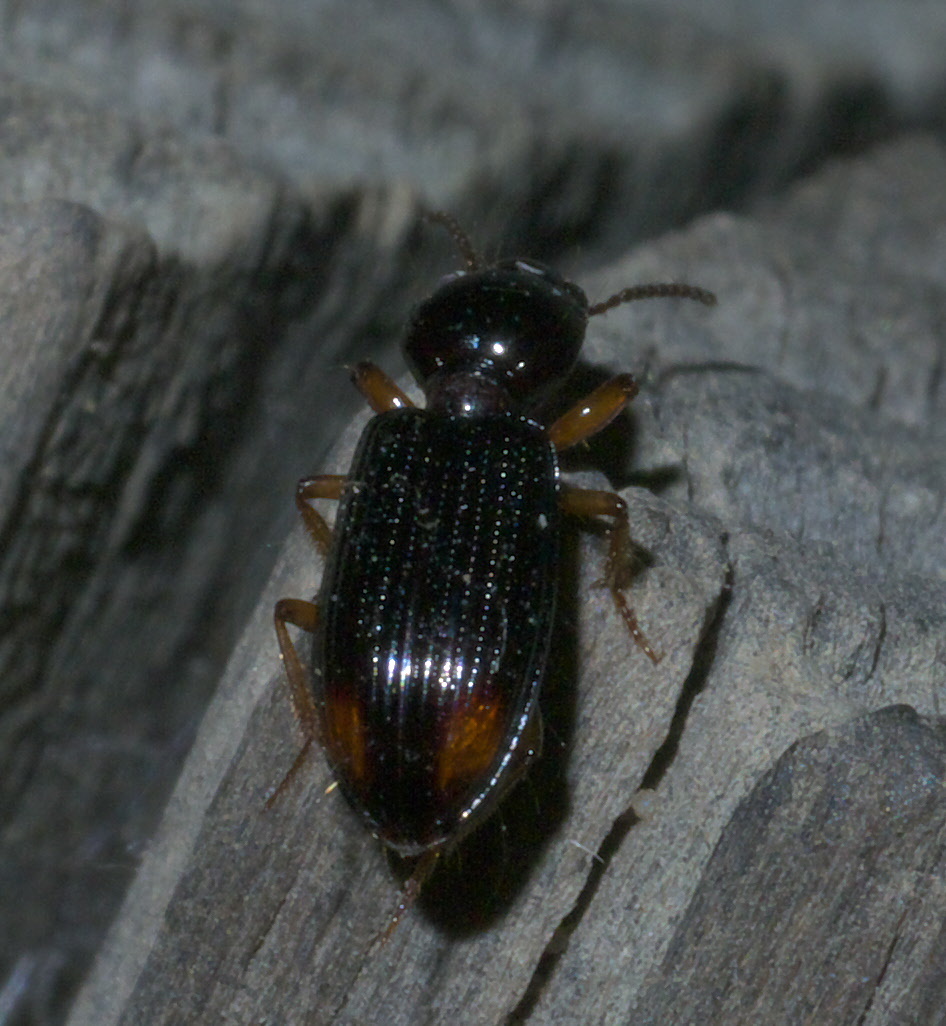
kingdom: Animalia
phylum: Arthropoda
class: Insecta
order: Coleoptera
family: Carabidae
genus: Aspidoglossa
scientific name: Aspidoglossa subangulata
